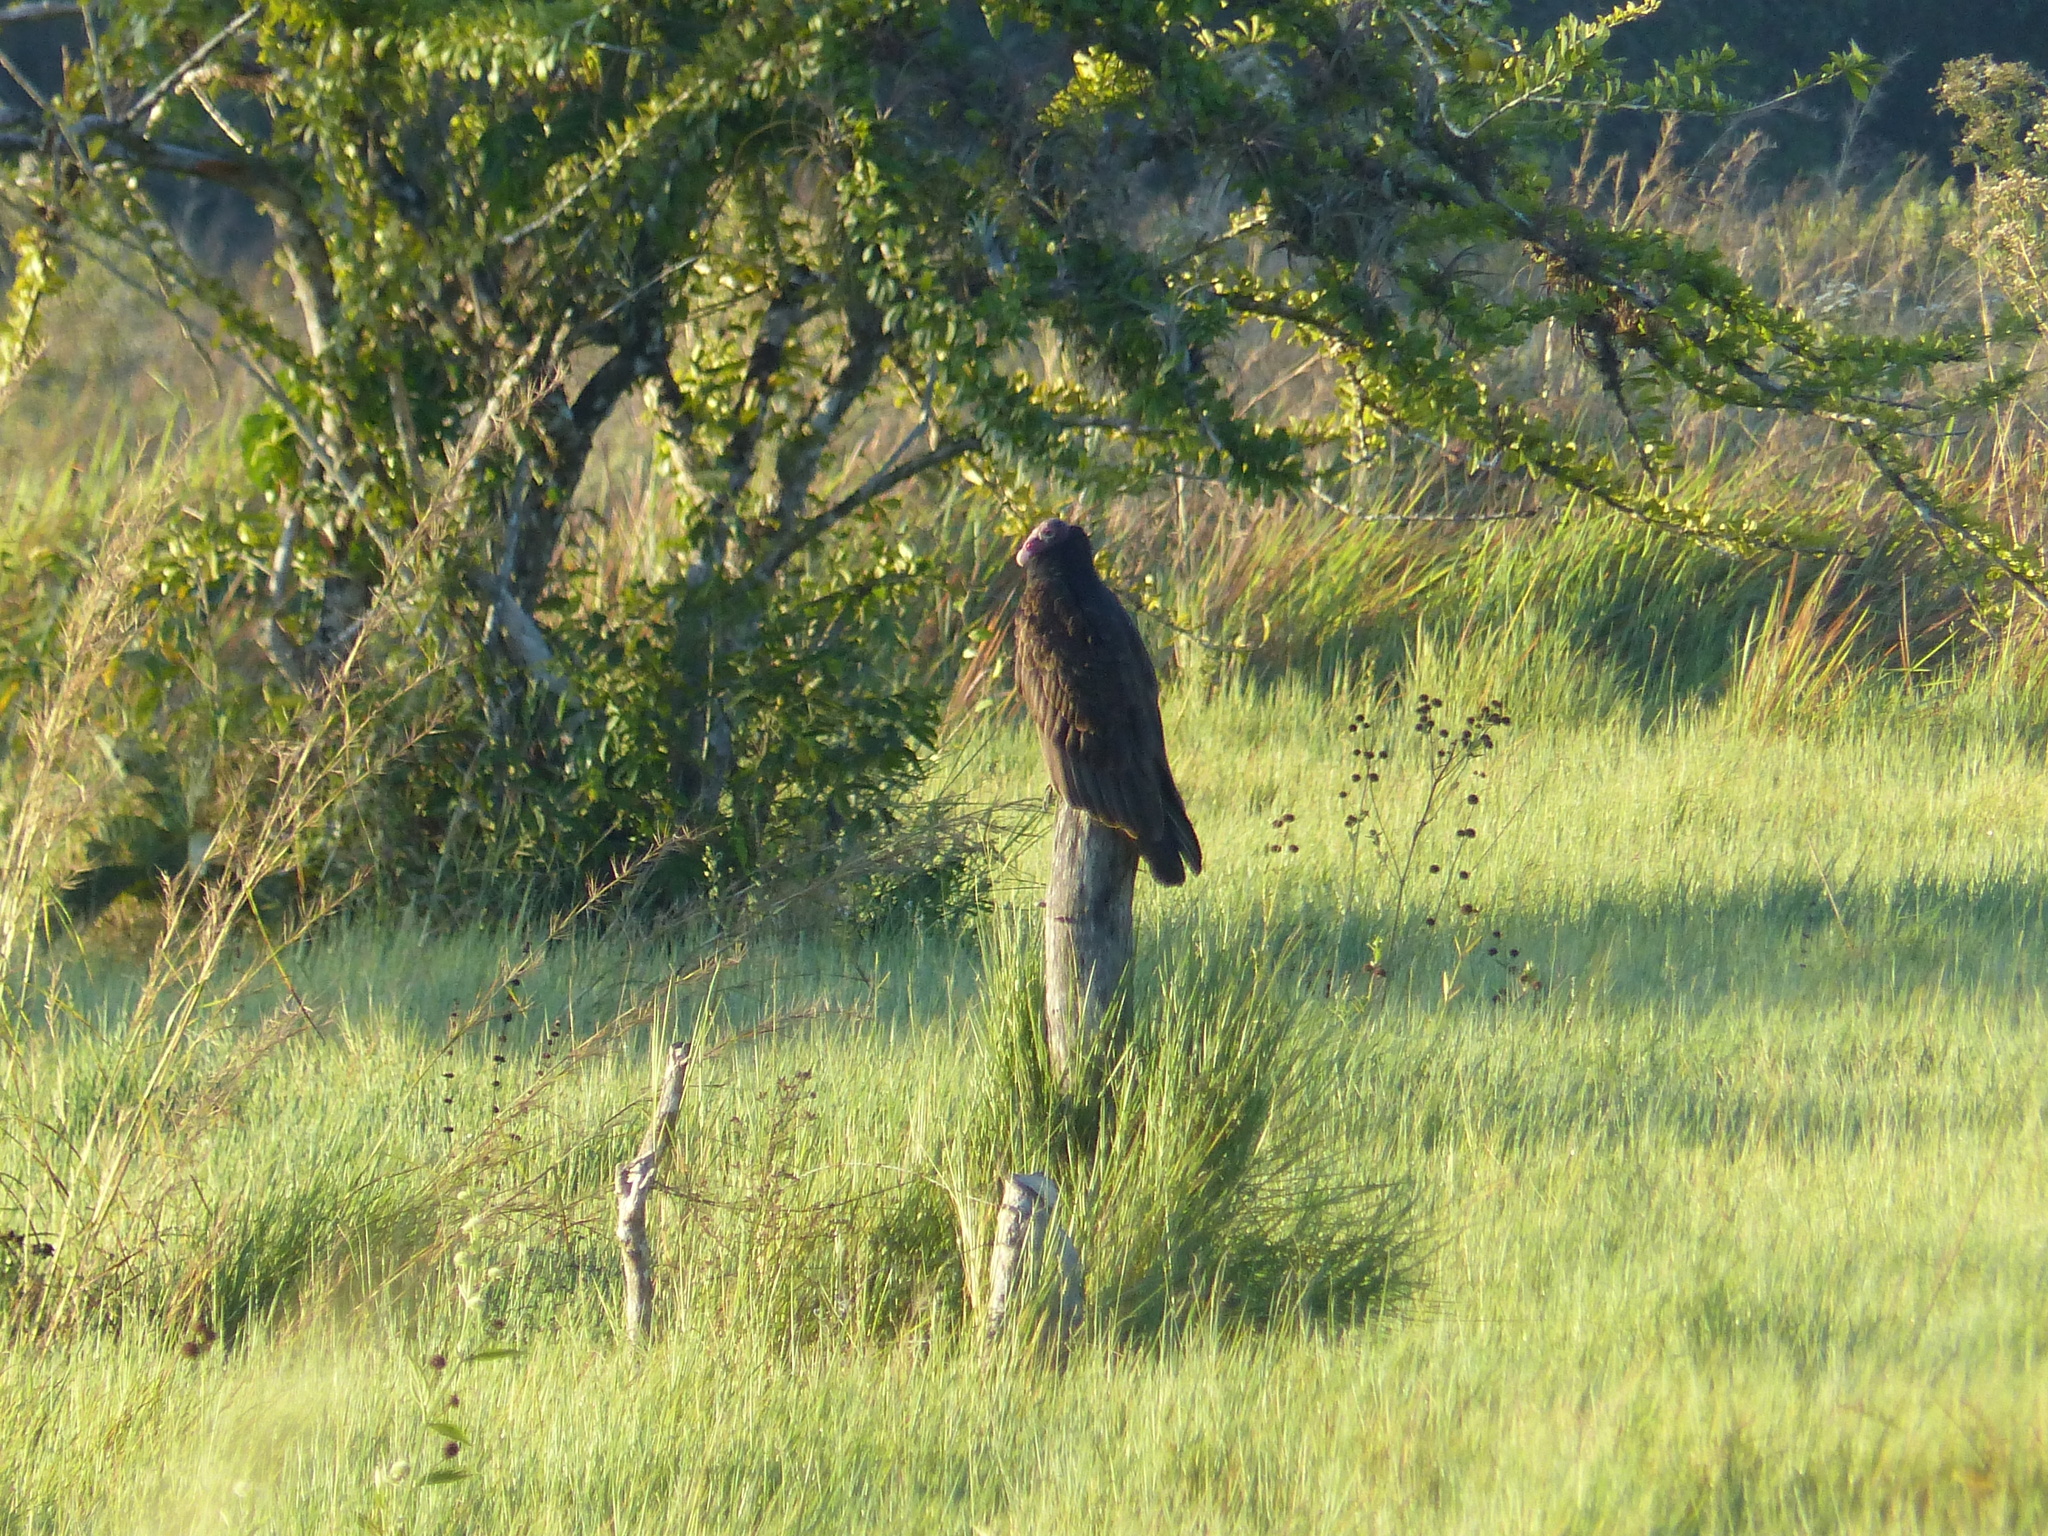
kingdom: Animalia
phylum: Chordata
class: Aves
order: Accipitriformes
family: Cathartidae
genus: Cathartes
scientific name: Cathartes aura
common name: Turkey vulture
